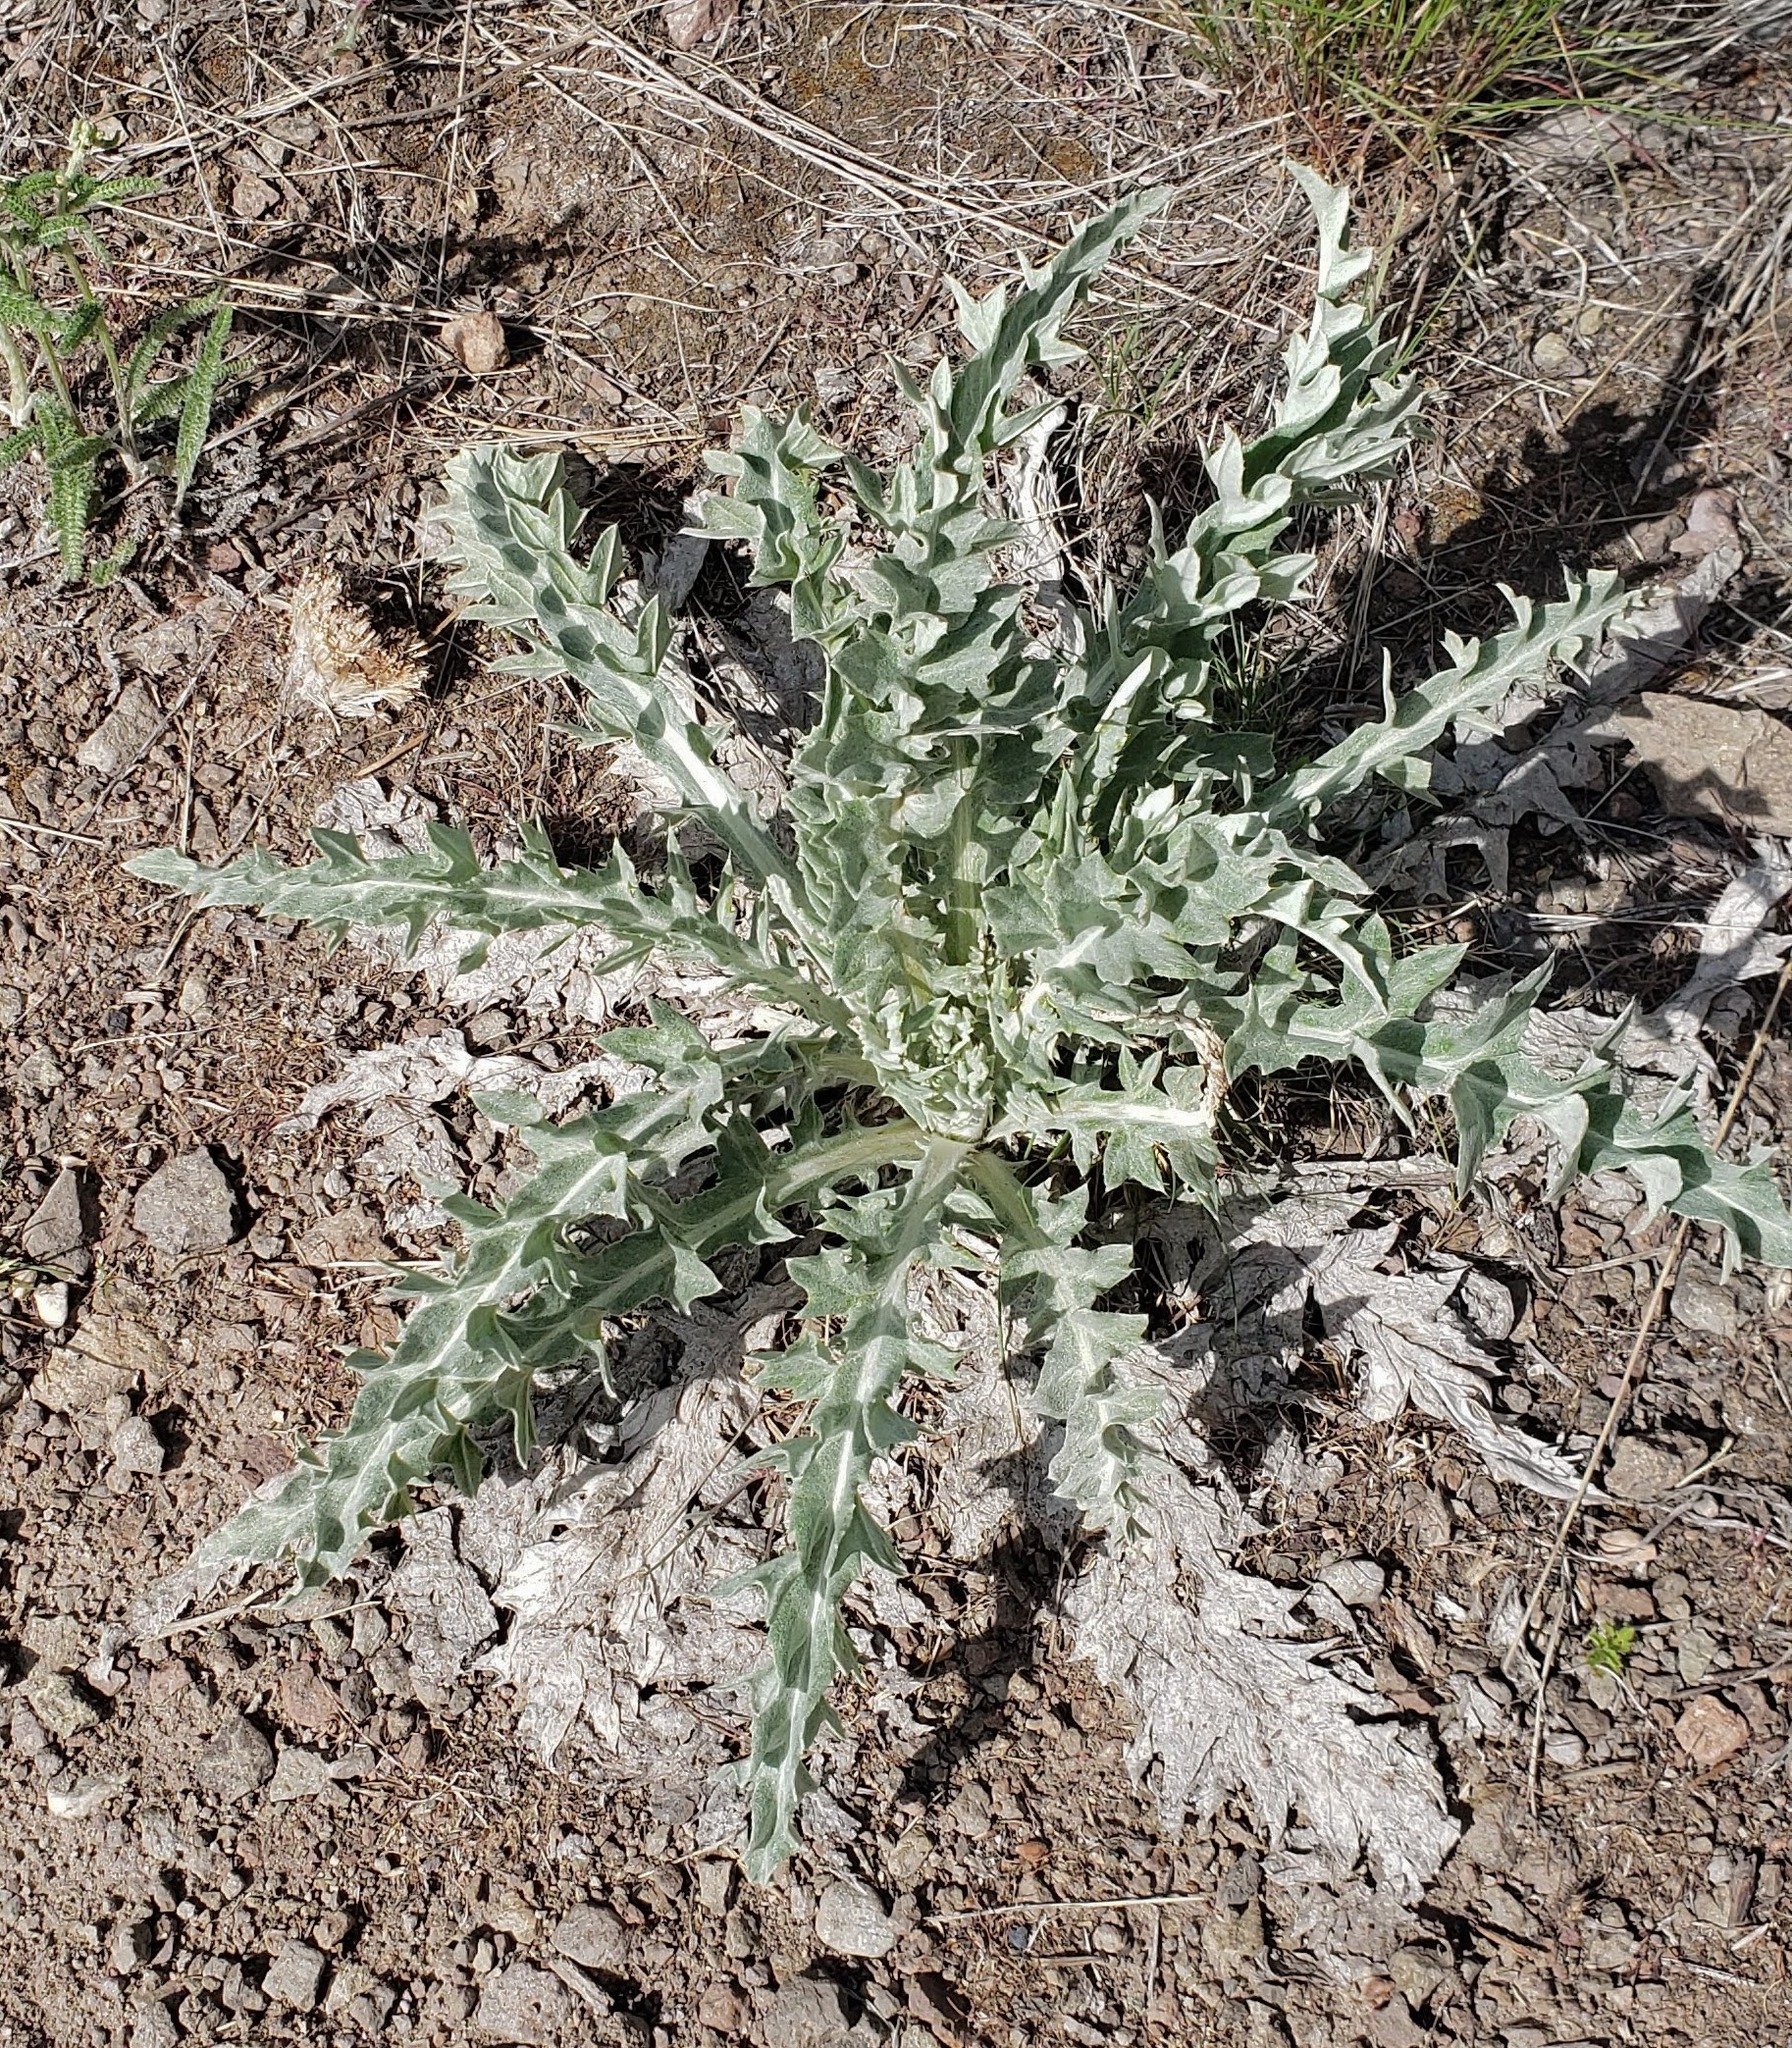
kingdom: Plantae
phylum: Tracheophyta
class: Magnoliopsida
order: Asterales
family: Asteraceae
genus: Cirsium
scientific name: Cirsium undulatum
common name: Pasture thistle
